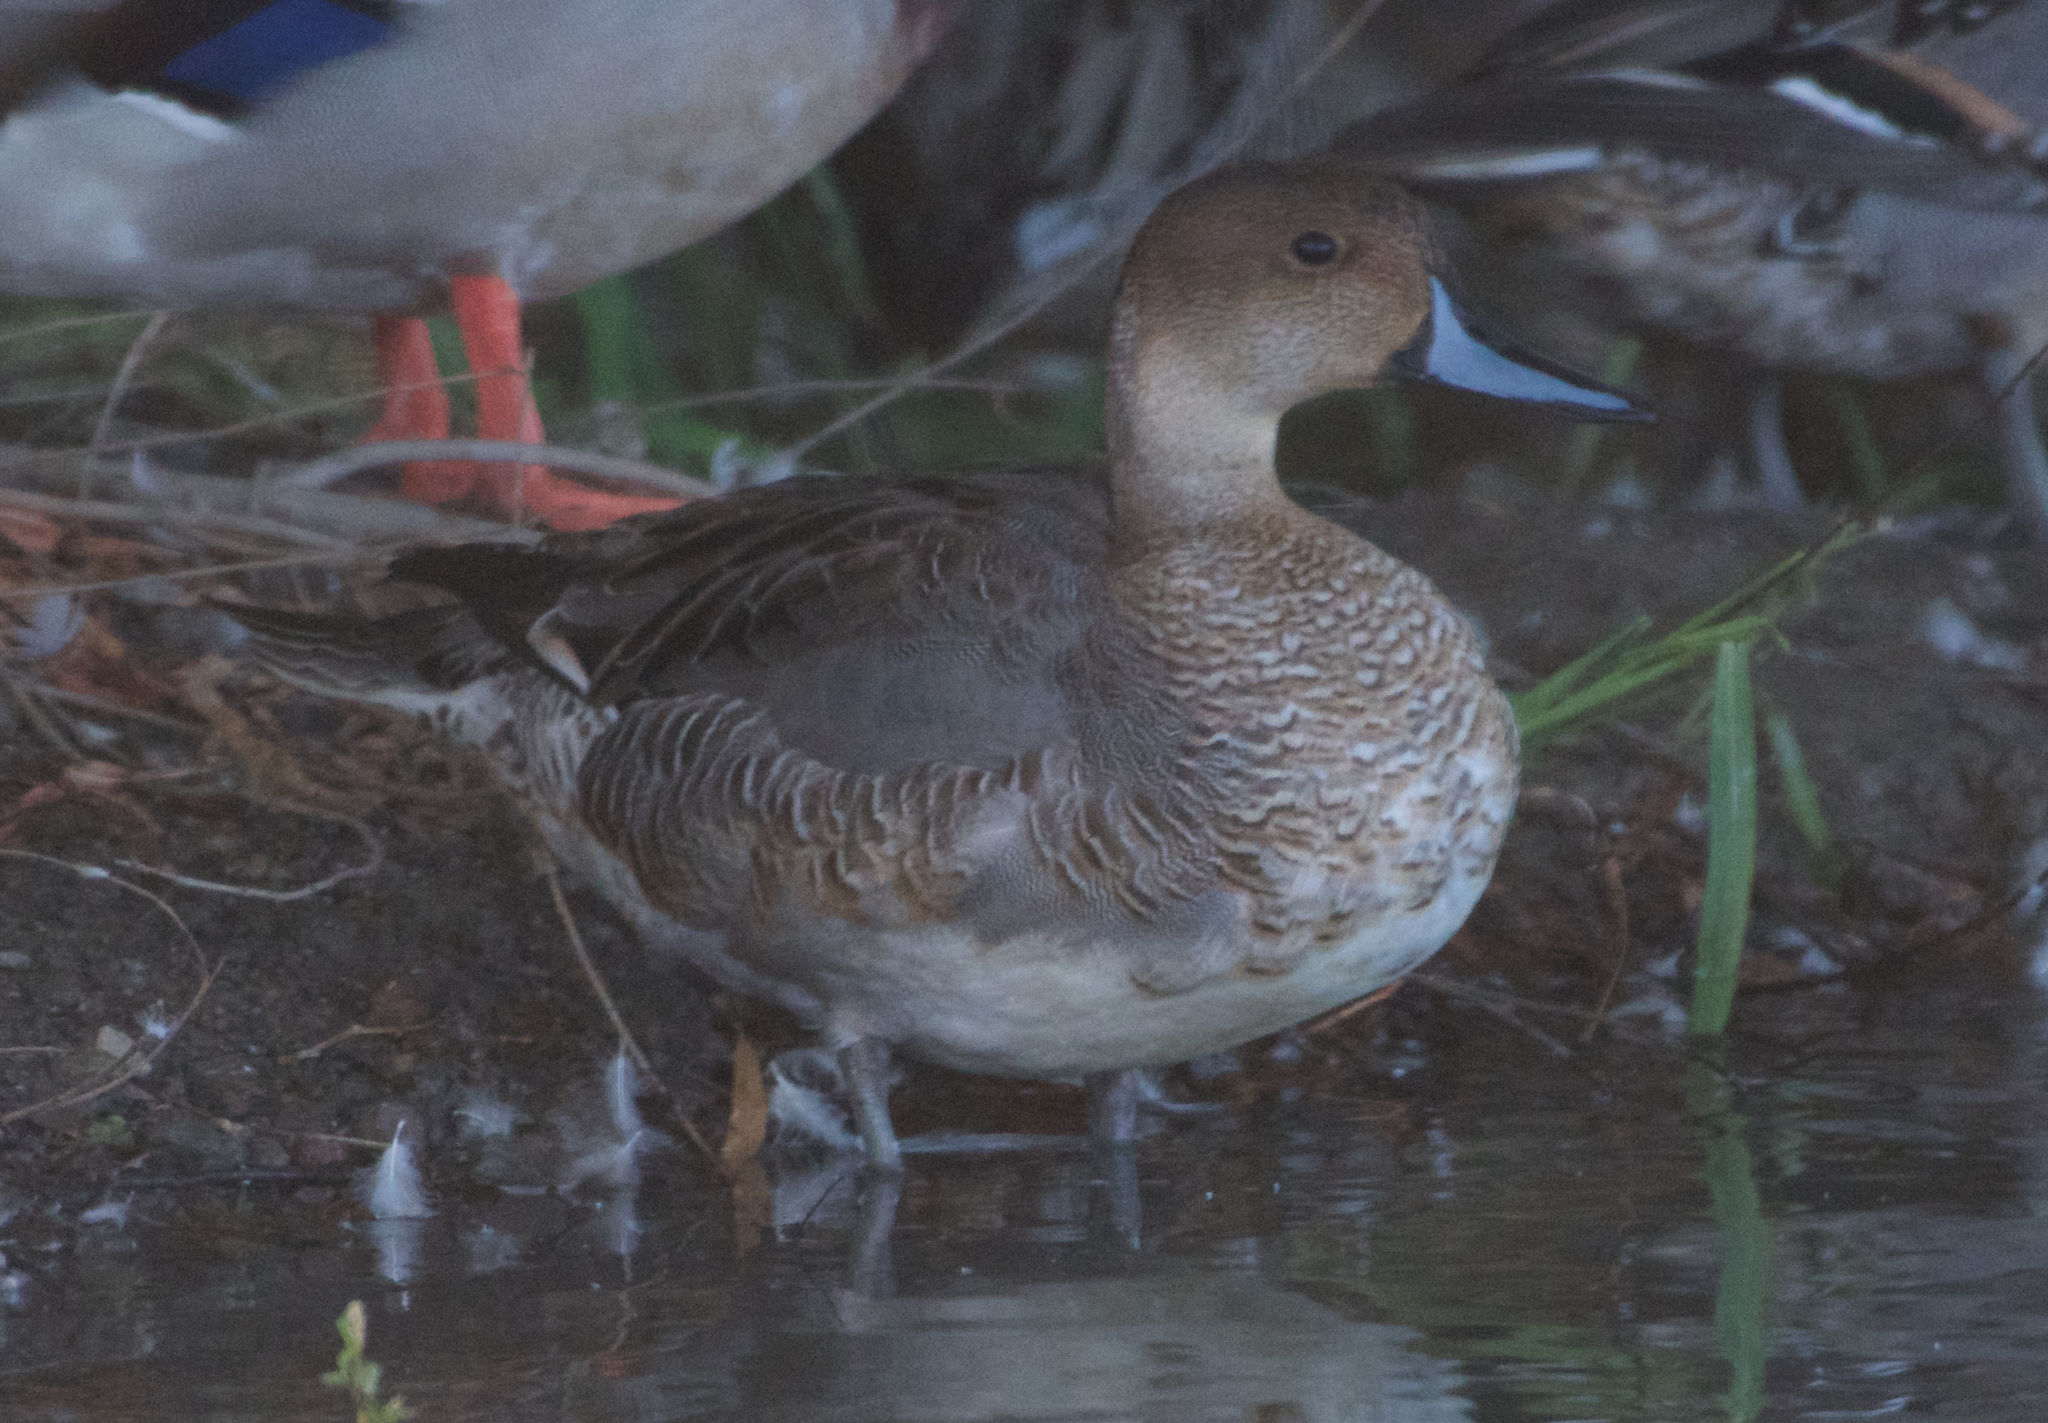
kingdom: Animalia
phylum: Chordata
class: Aves
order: Anseriformes
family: Anatidae
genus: Anas
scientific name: Anas acuta
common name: Northern pintail
